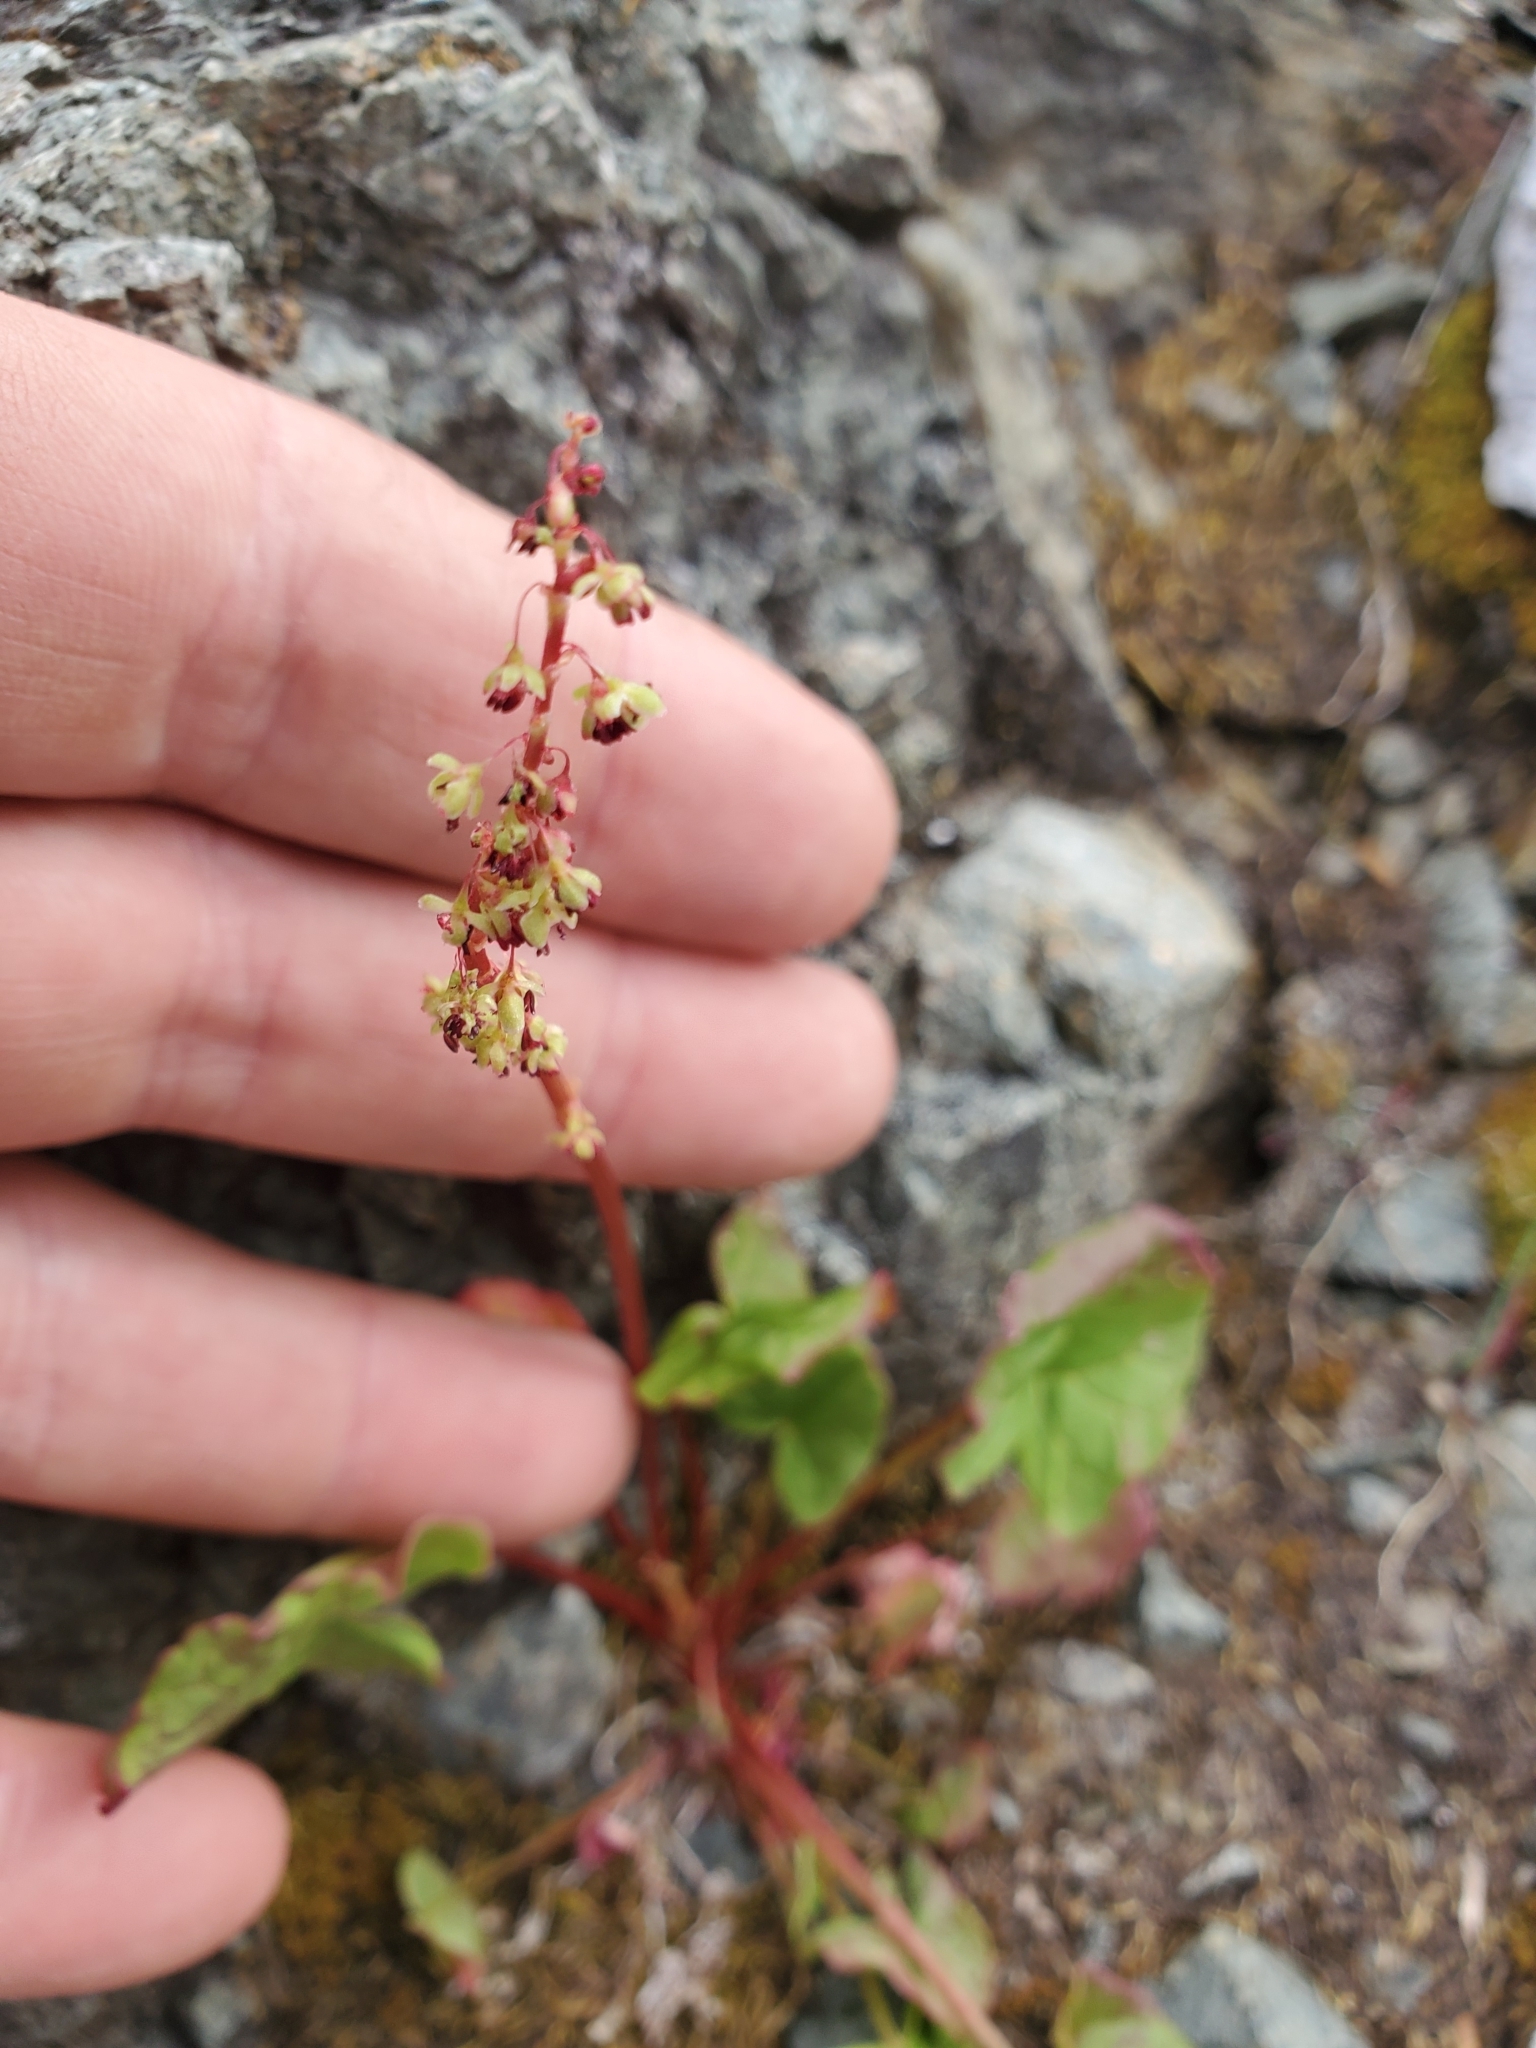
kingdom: Plantae
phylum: Tracheophyta
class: Magnoliopsida
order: Caryophyllales
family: Polygonaceae
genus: Oxyria
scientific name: Oxyria digyna
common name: Alpine mountain-sorrel
